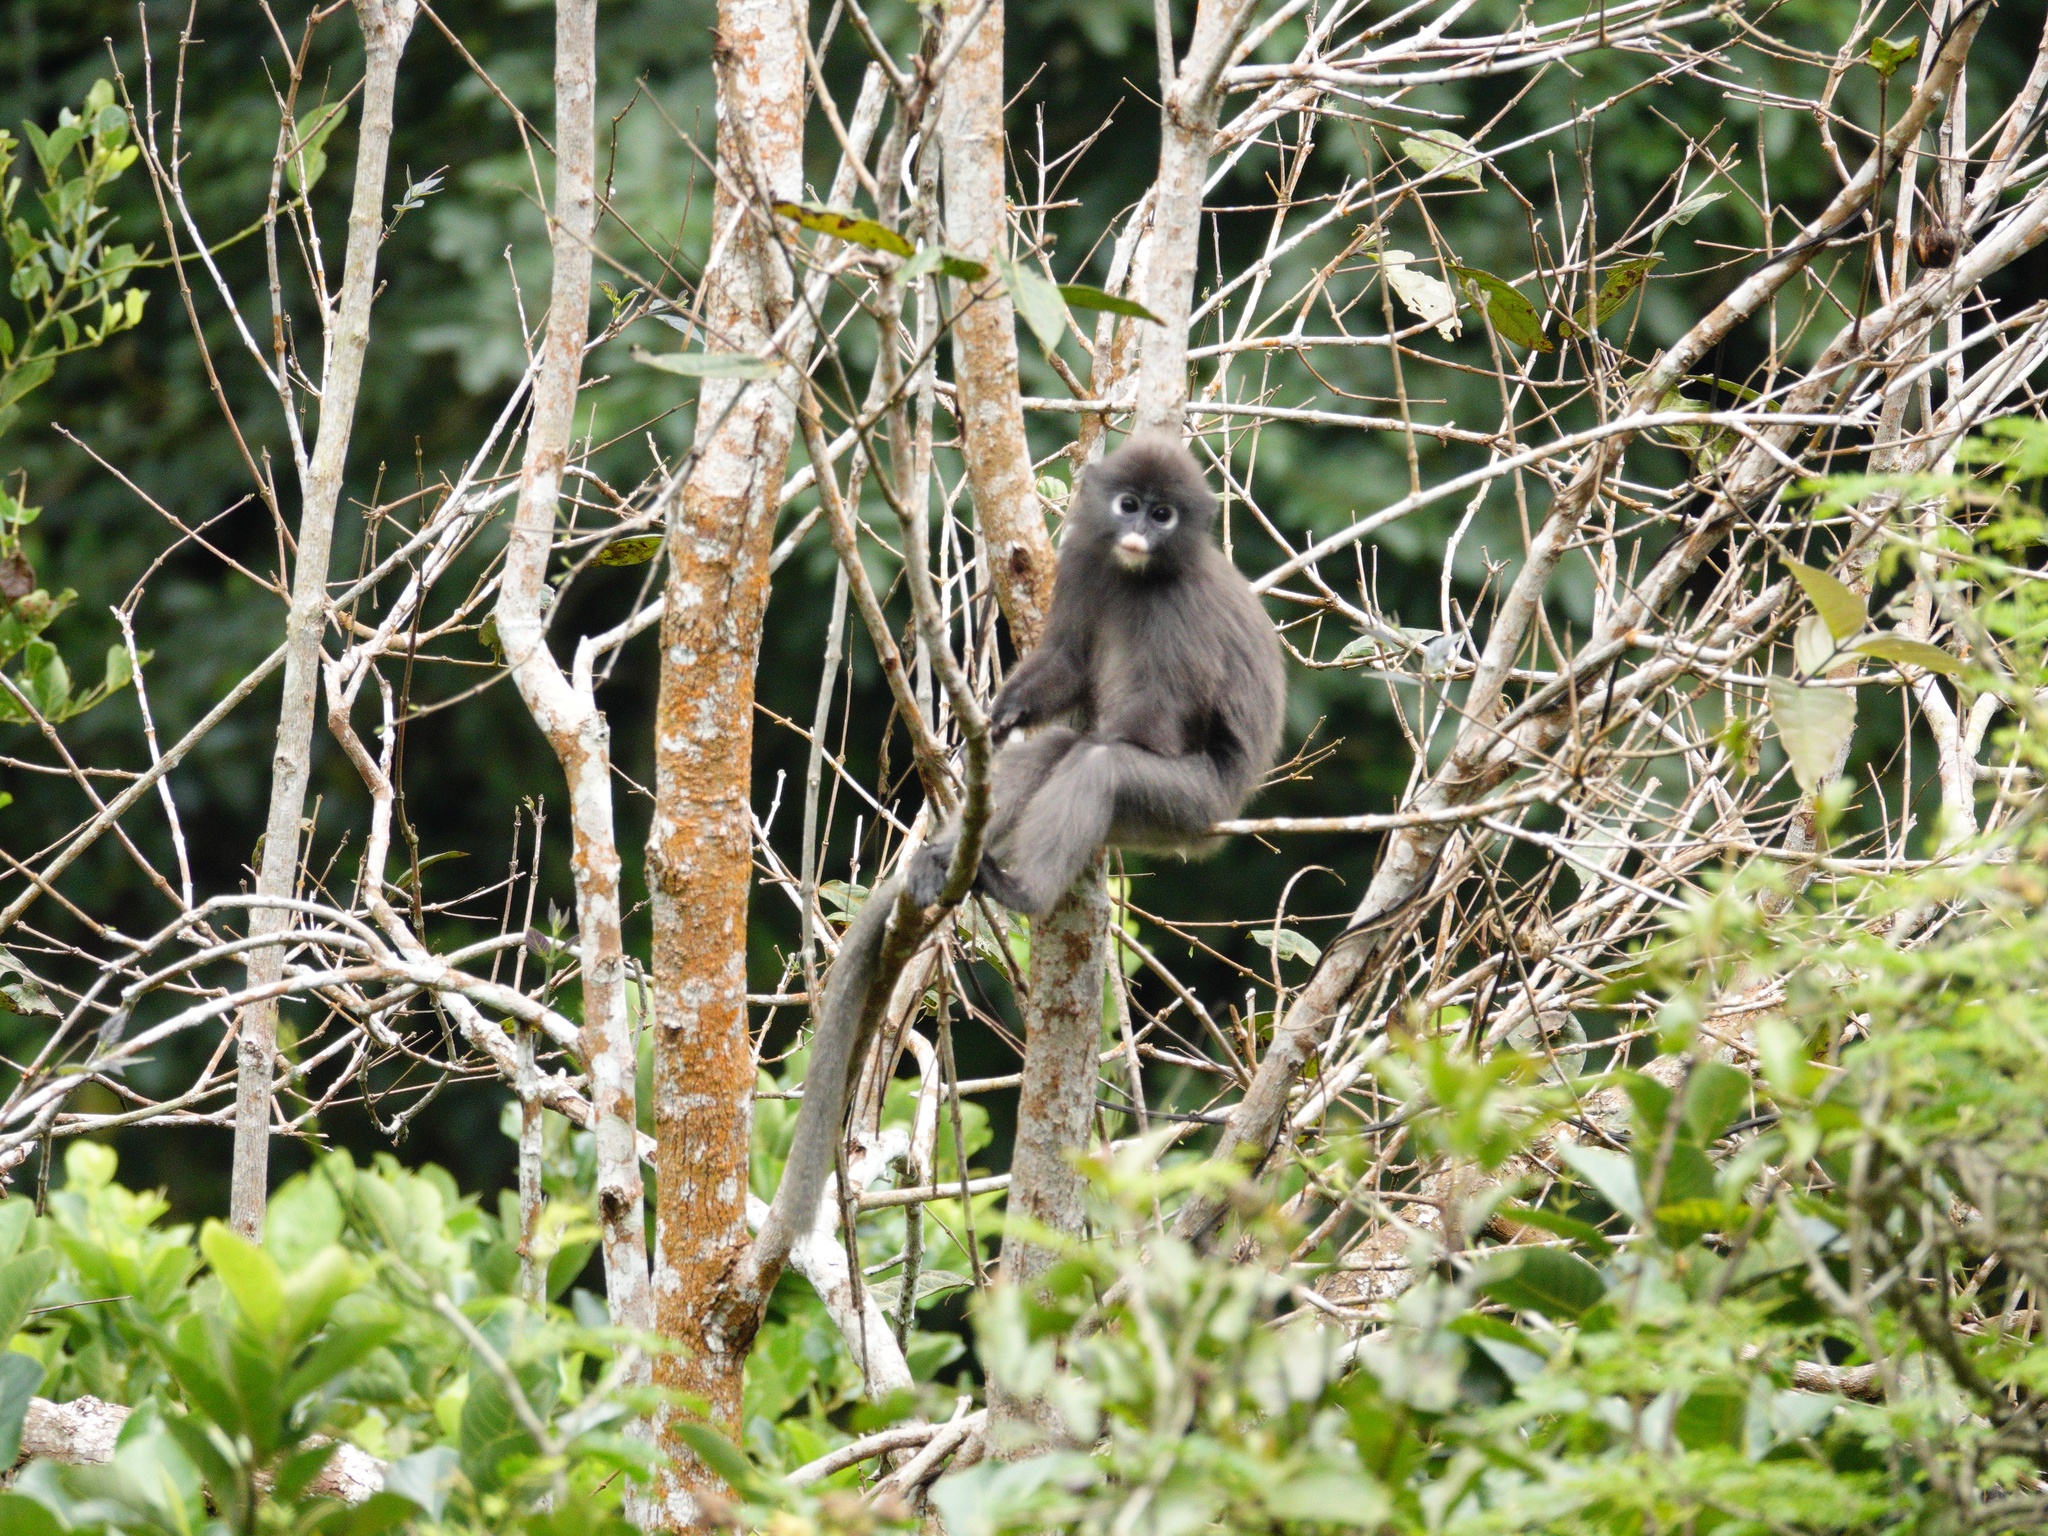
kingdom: Animalia
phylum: Chordata
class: Mammalia
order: Primates
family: Cercopithecidae
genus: Trachypithecus
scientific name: Trachypithecus obscurus
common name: Dusky leaf-monkey
